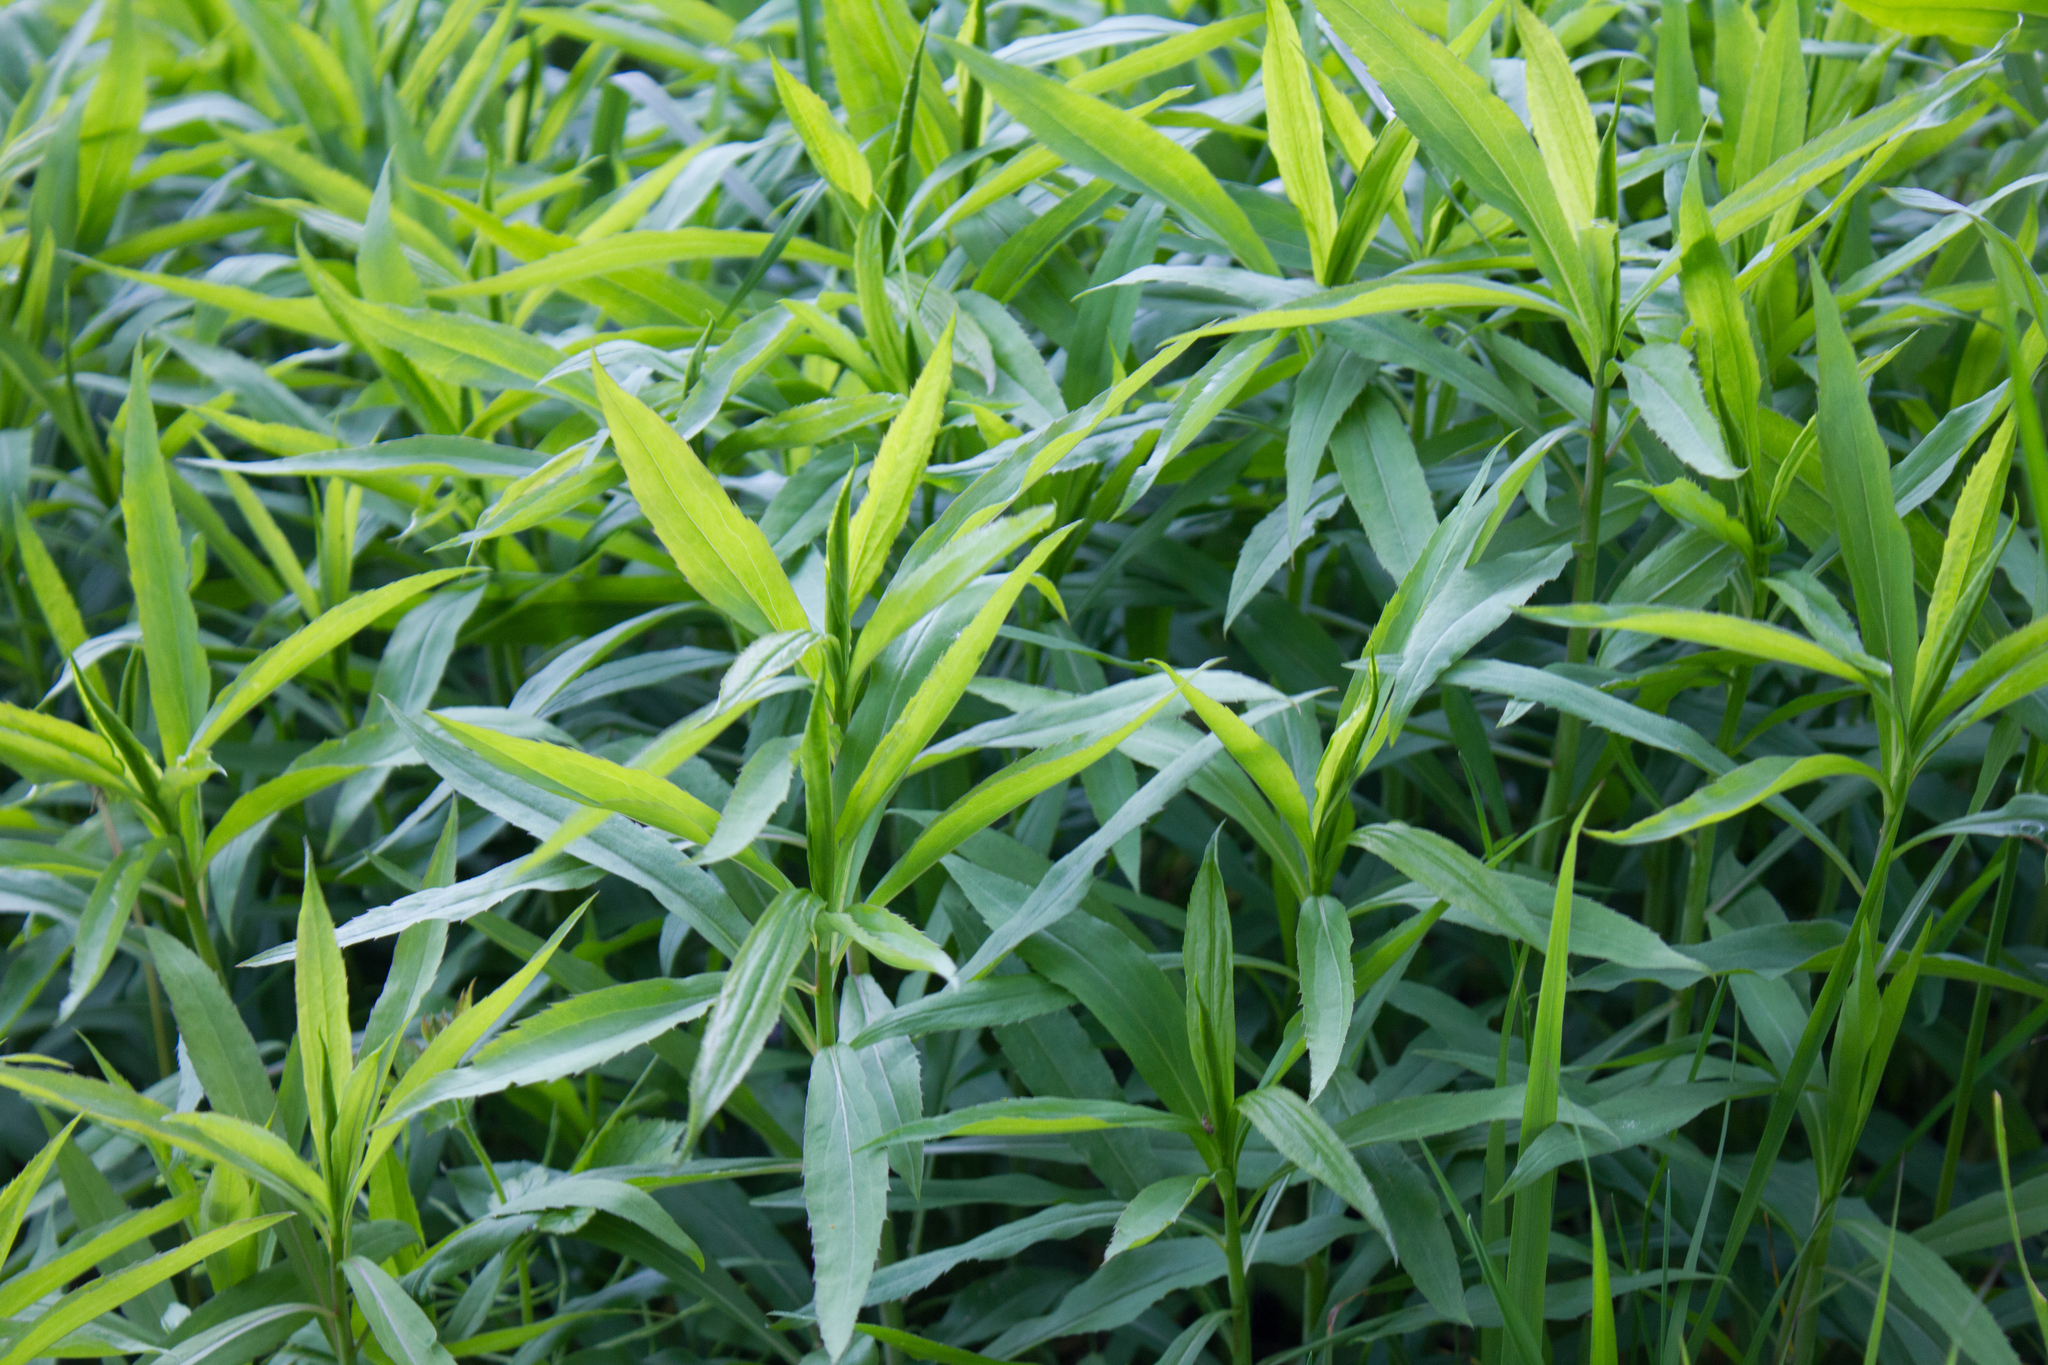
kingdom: Plantae
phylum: Tracheophyta
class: Magnoliopsida
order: Asterales
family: Asteraceae
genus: Solidago
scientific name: Solidago gigantea
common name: Giant goldenrod
